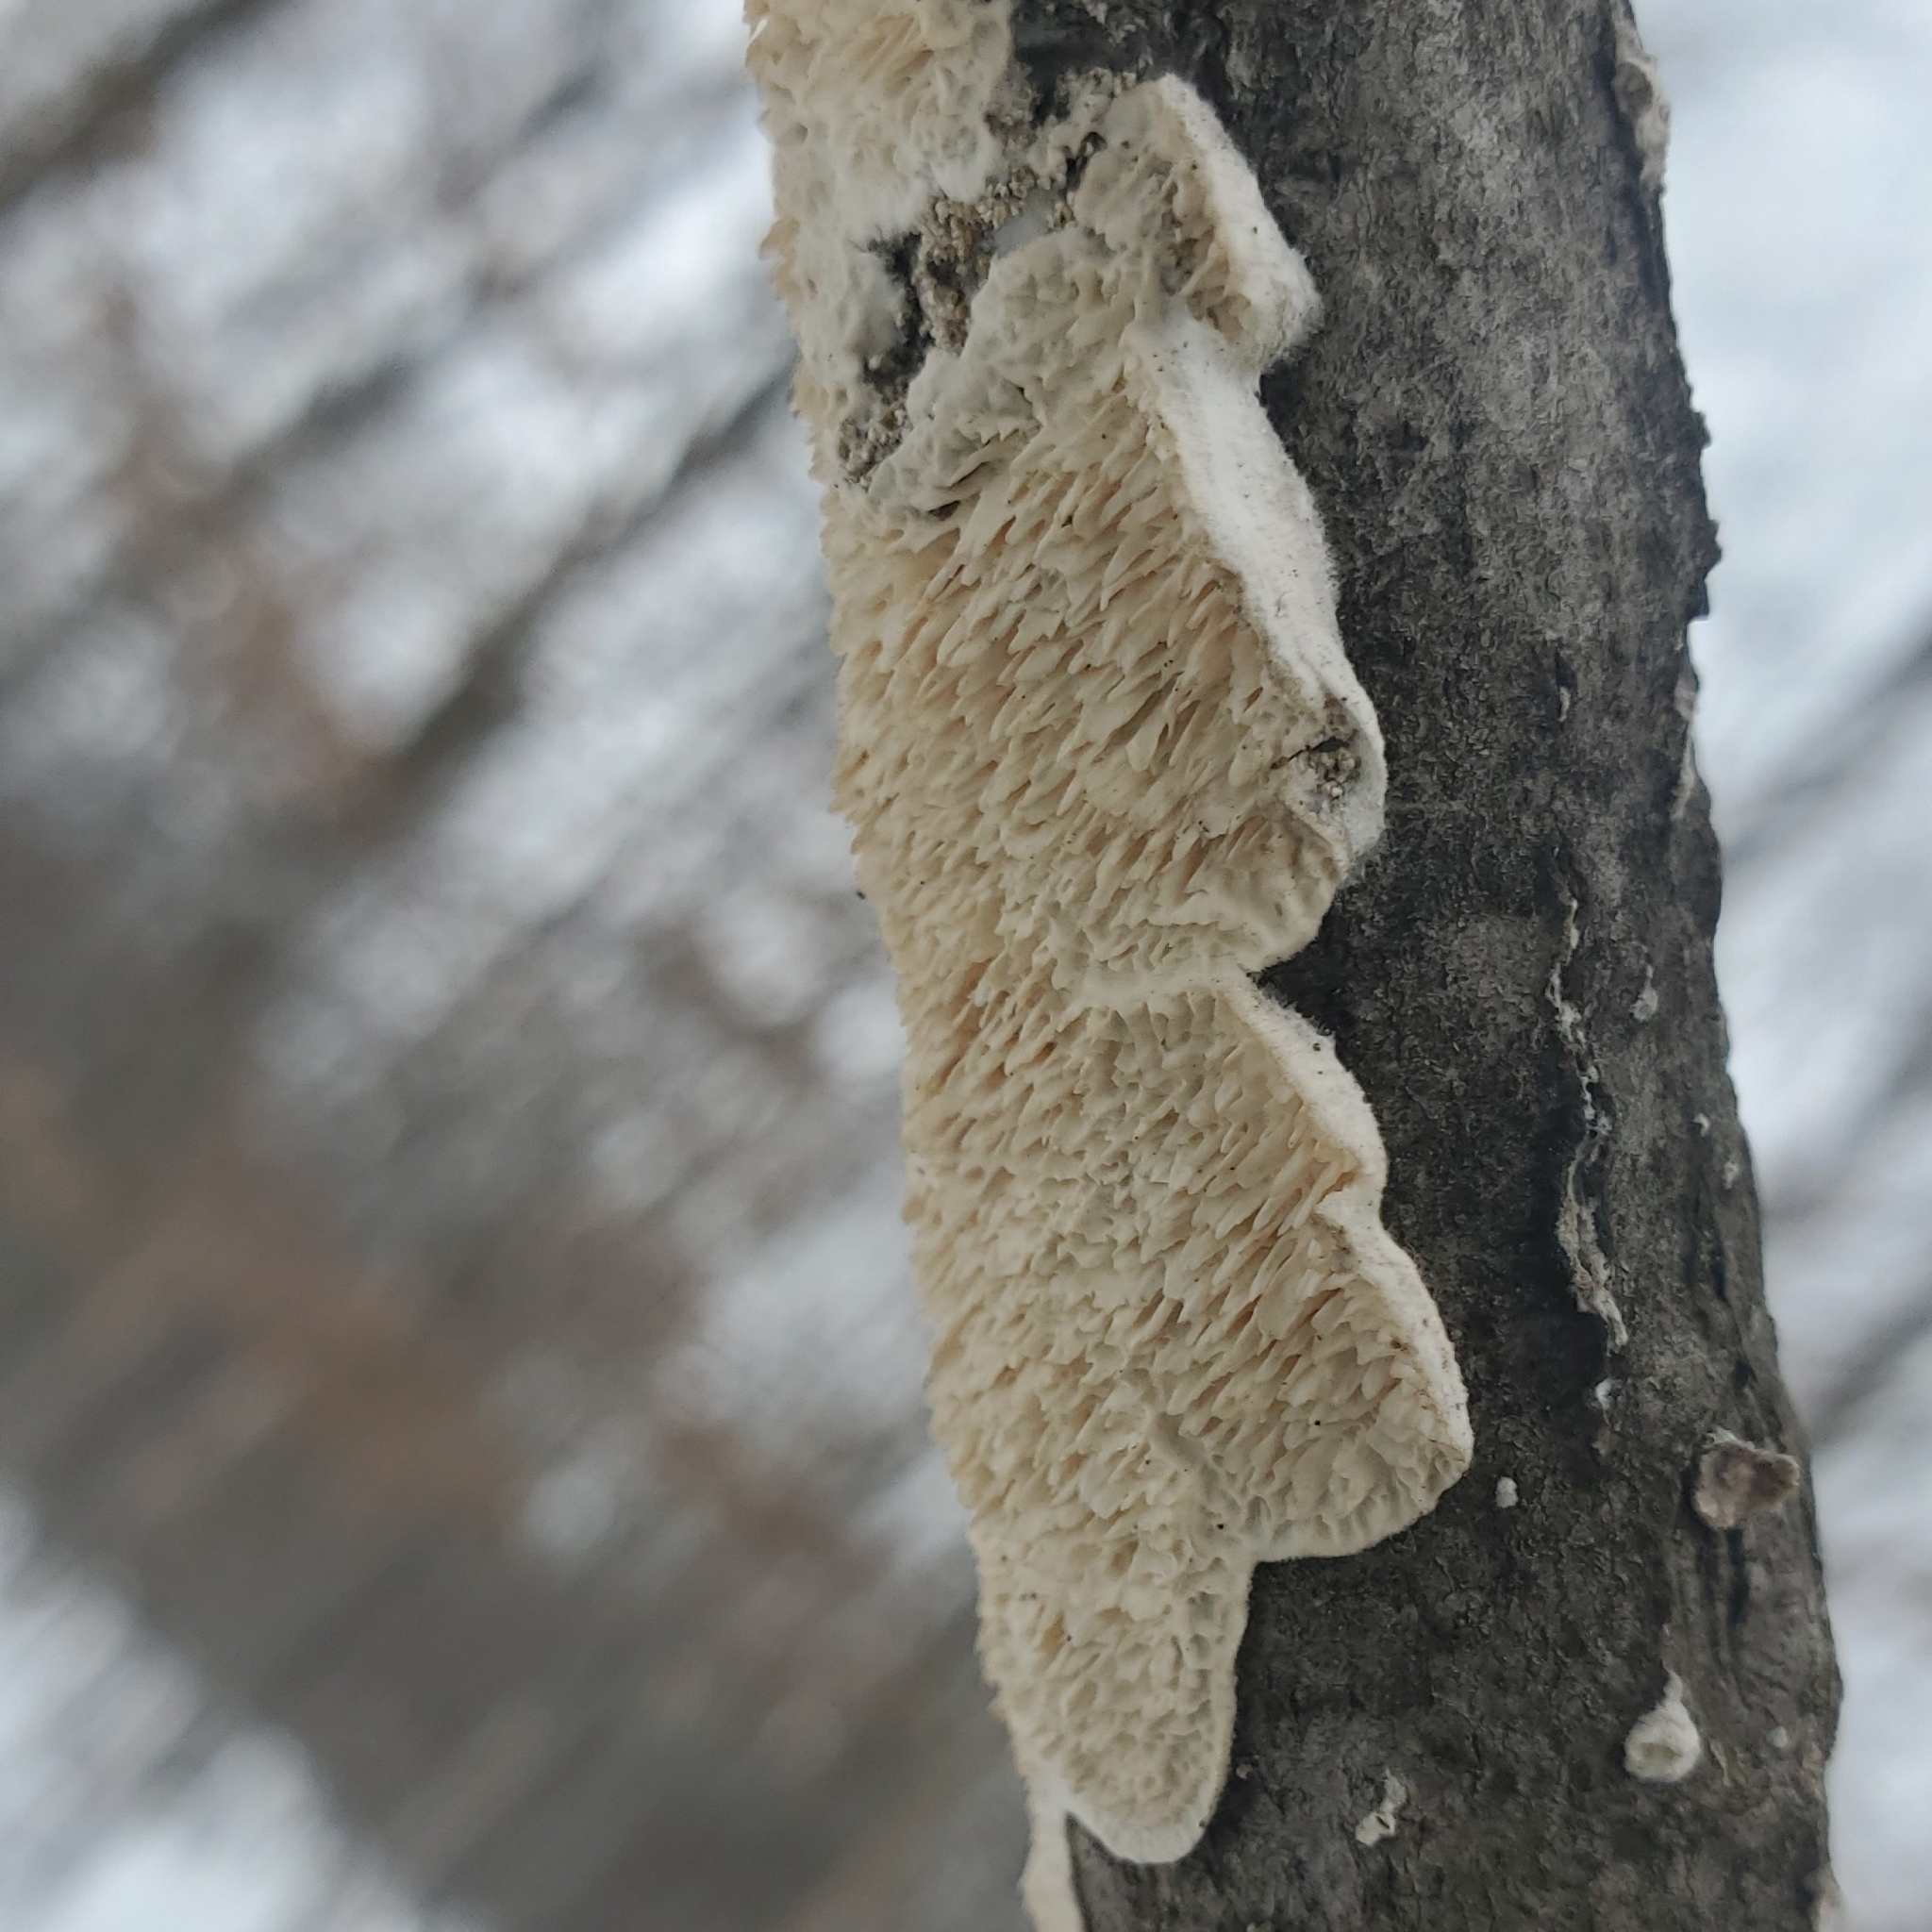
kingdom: Fungi
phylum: Basidiomycota
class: Agaricomycetes
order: Polyporales
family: Irpicaceae
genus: Irpex
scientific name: Irpex lacteus
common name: Milk-white toothed polypore
